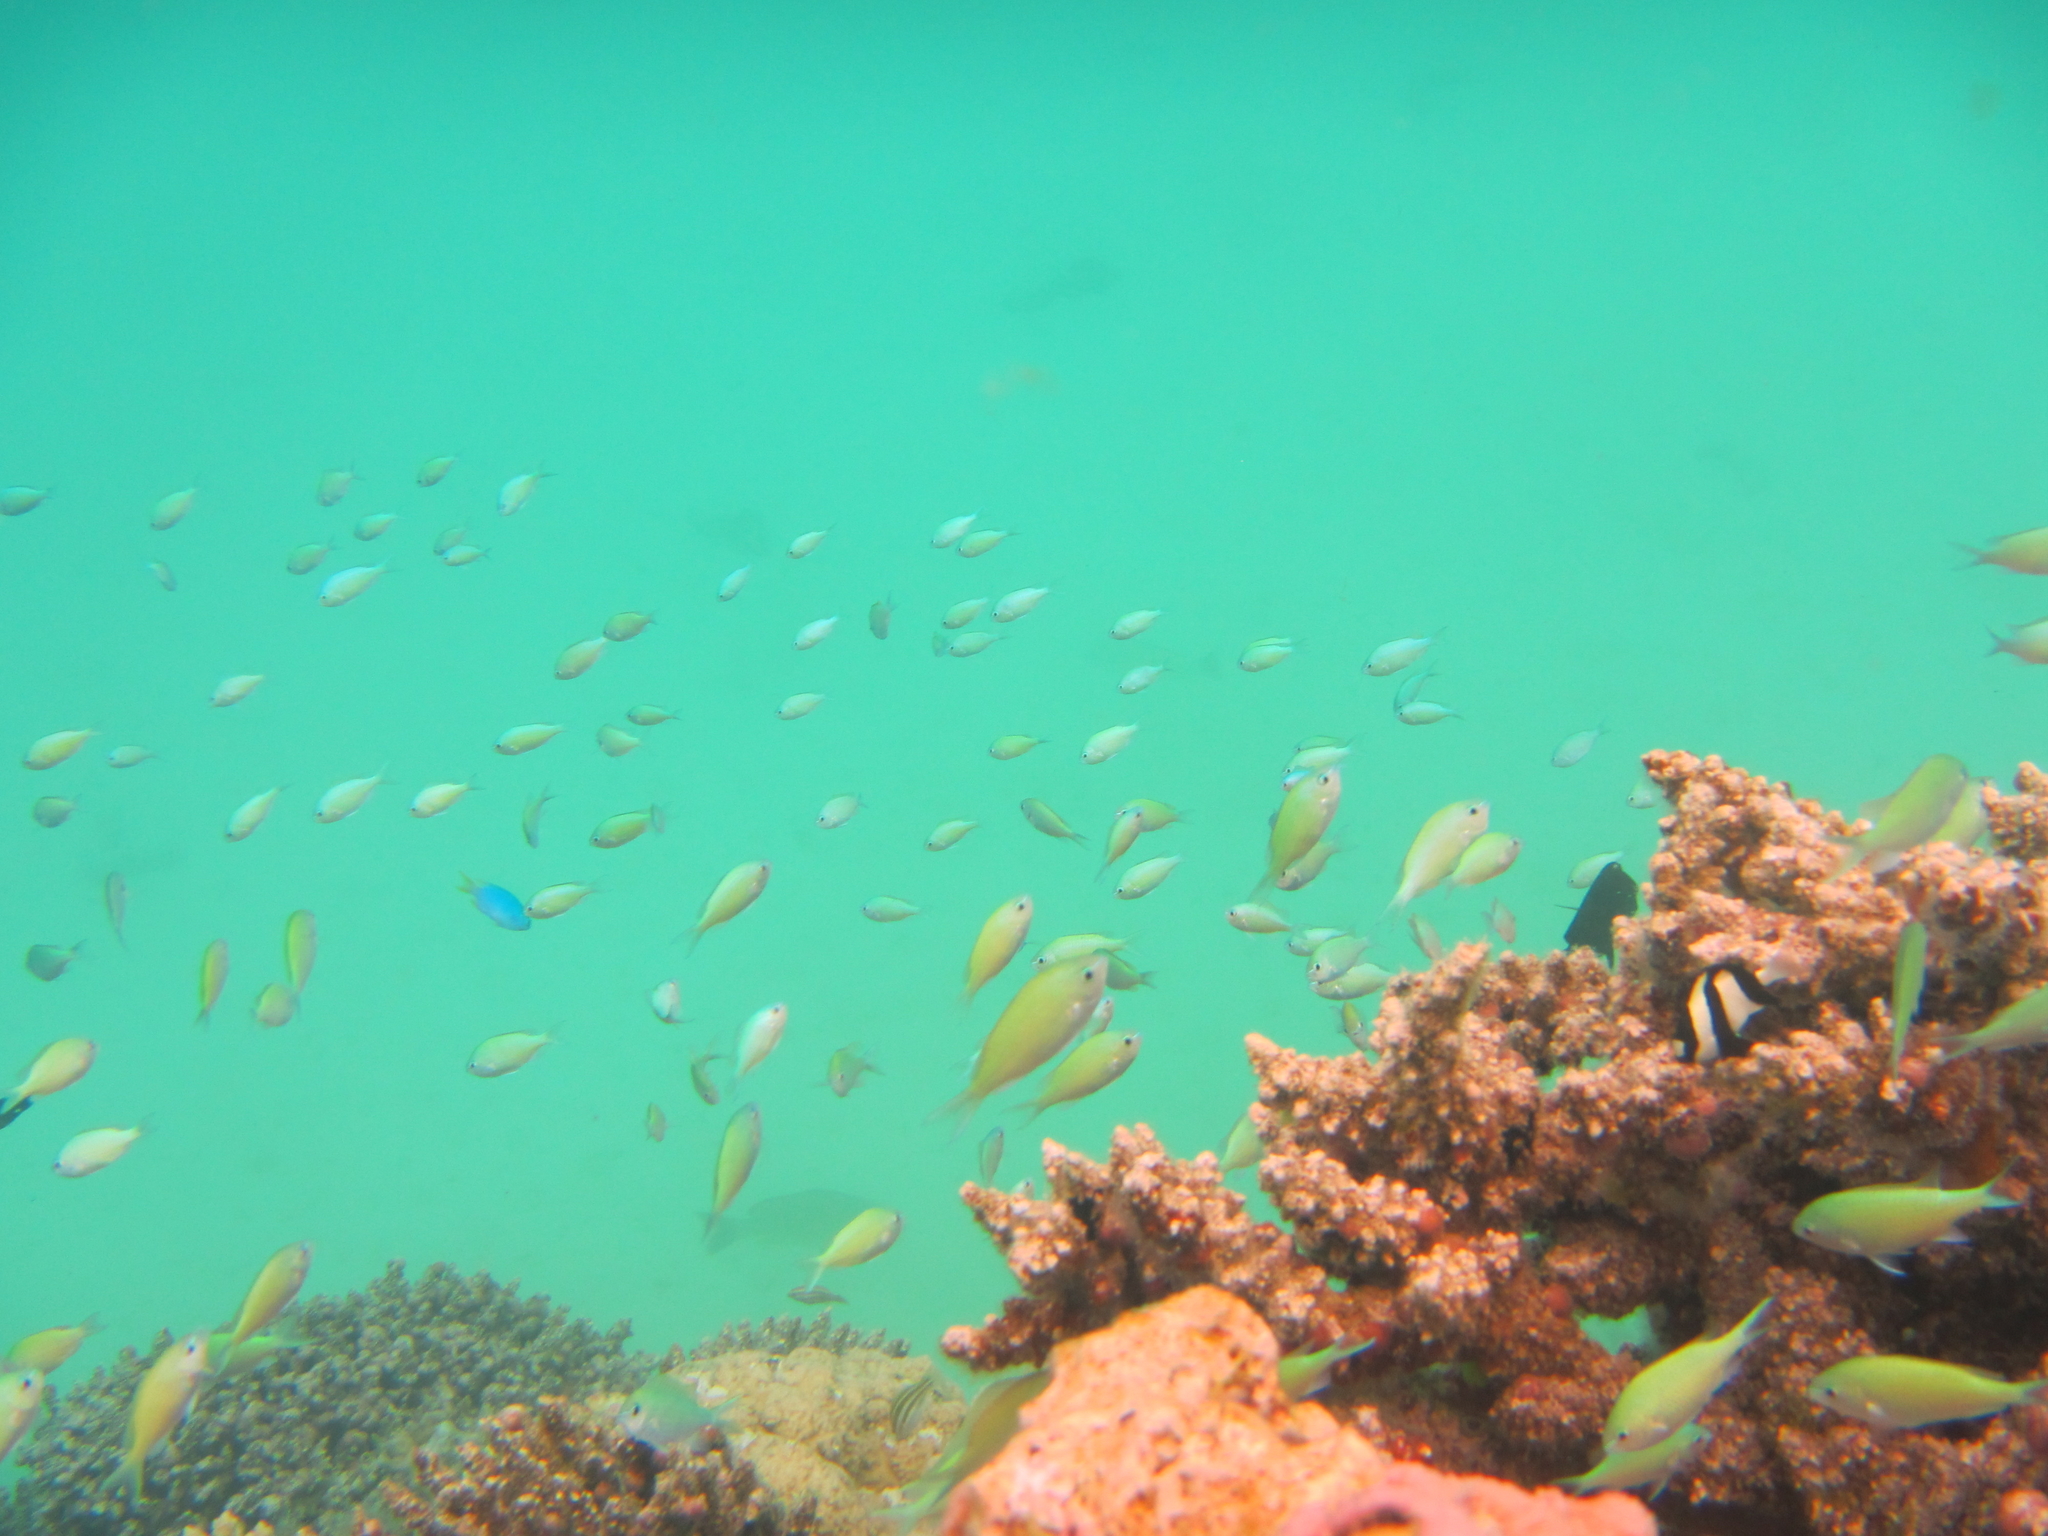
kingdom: Animalia
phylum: Chordata
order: Perciformes
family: Pomacentridae
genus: Chromis
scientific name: Chromis viridis
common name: Blue-green chromis
